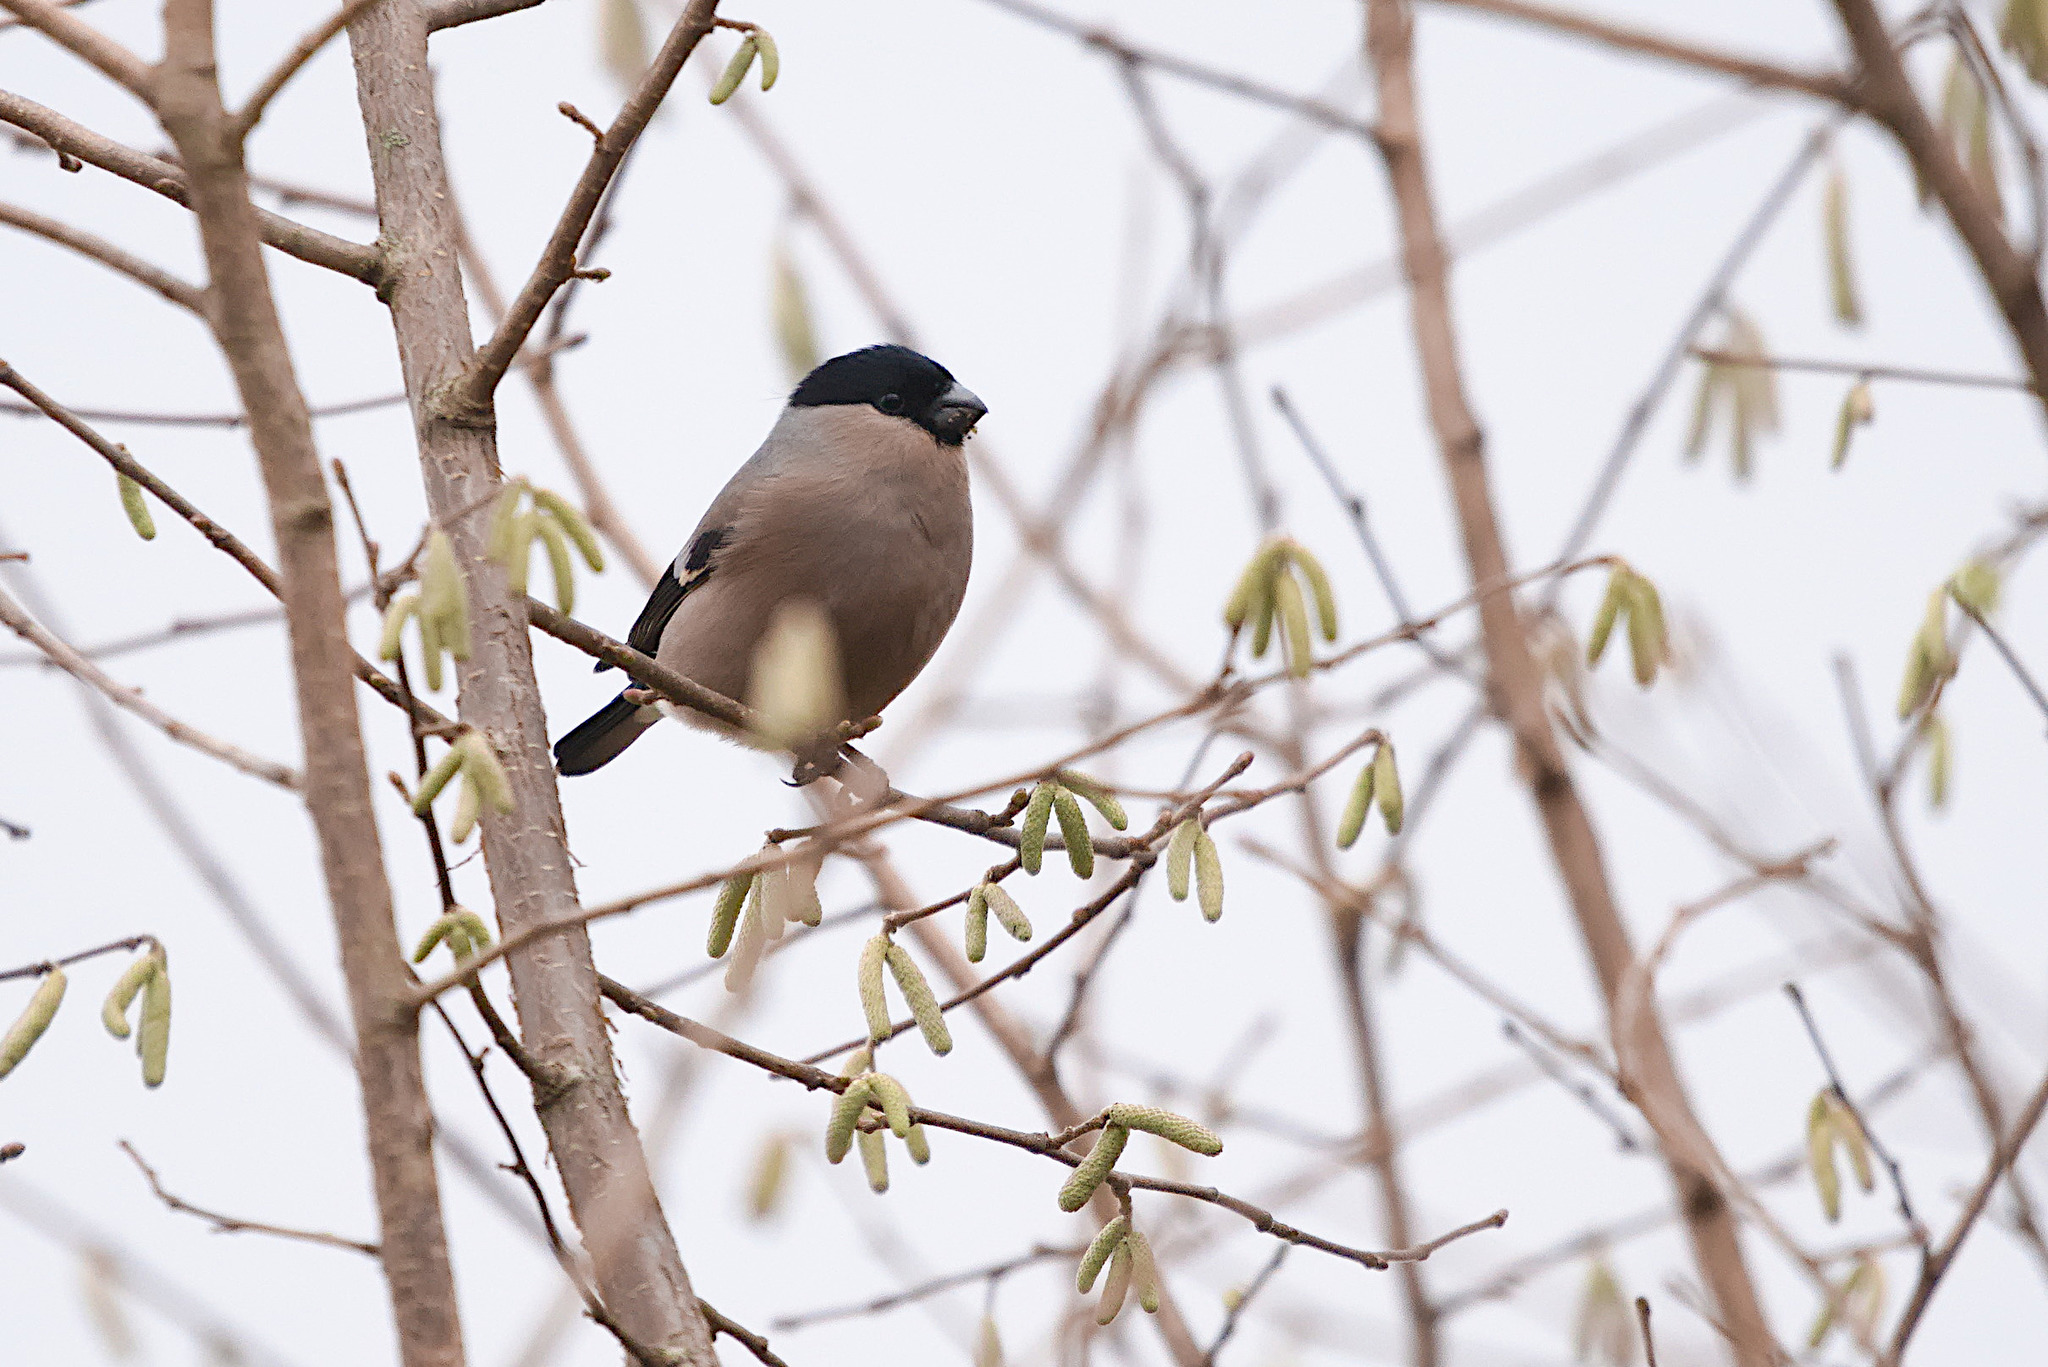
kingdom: Animalia
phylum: Chordata
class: Aves
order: Passeriformes
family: Fringillidae
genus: Pyrrhula
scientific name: Pyrrhula pyrrhula
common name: Eurasian bullfinch
